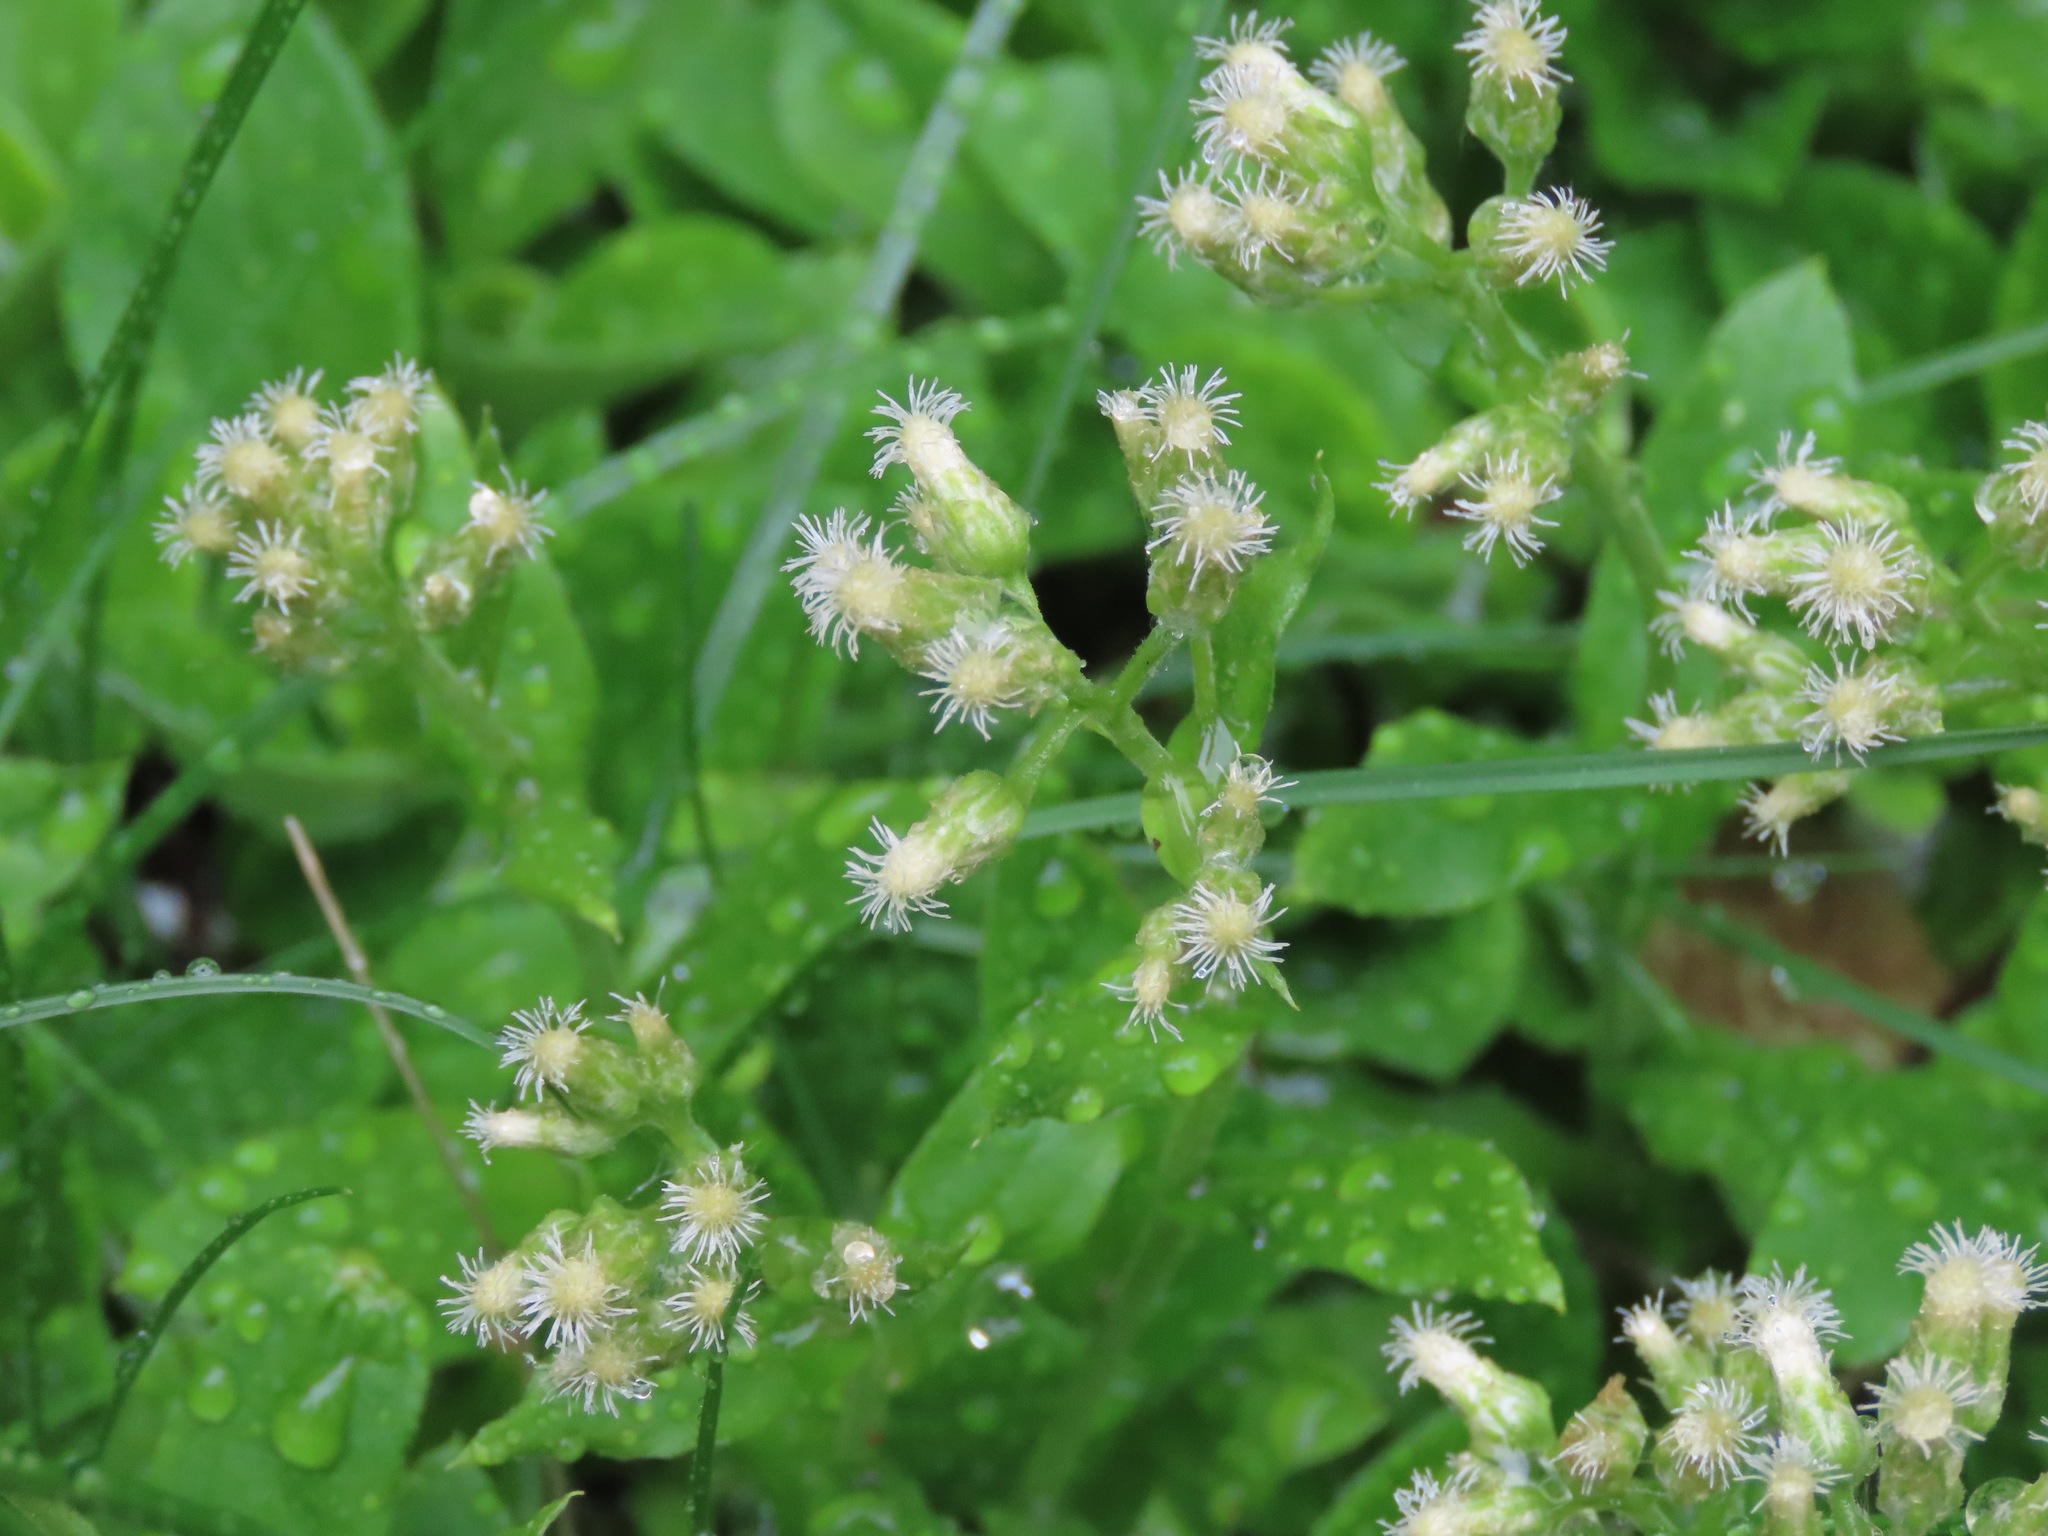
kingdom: Plantae
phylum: Tracheophyta
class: Magnoliopsida
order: Asterales
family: Asteraceae
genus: Antennaria
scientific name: Antennaria racemosa
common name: Racemose pussytoes
